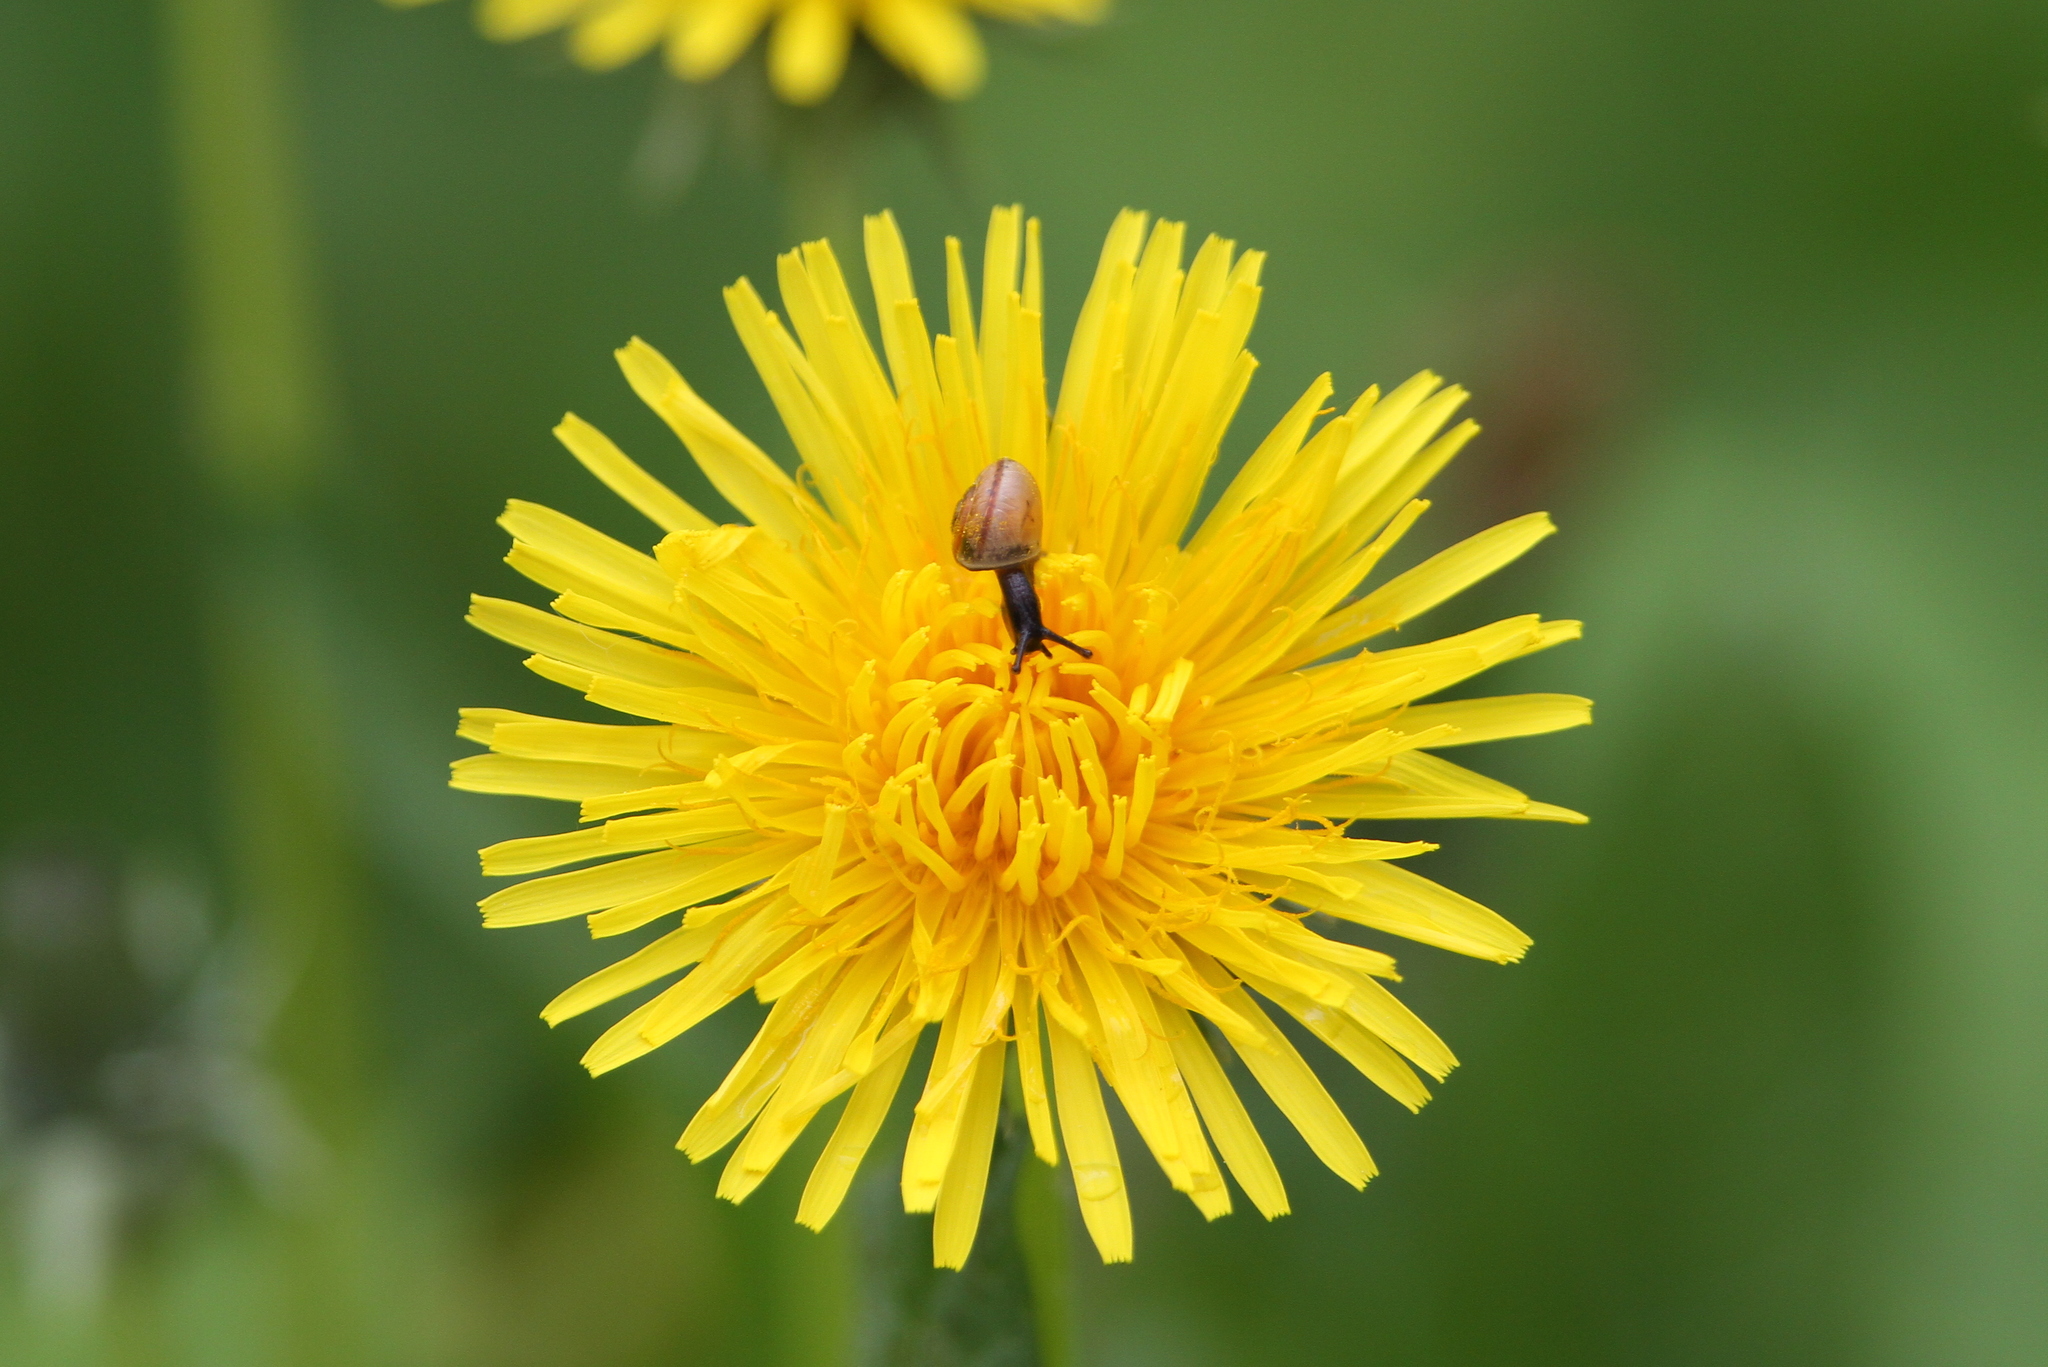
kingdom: Plantae
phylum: Tracheophyta
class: Magnoliopsida
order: Asterales
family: Asteraceae
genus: Taraxacum
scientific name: Taraxacum officinale
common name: Common dandelion
